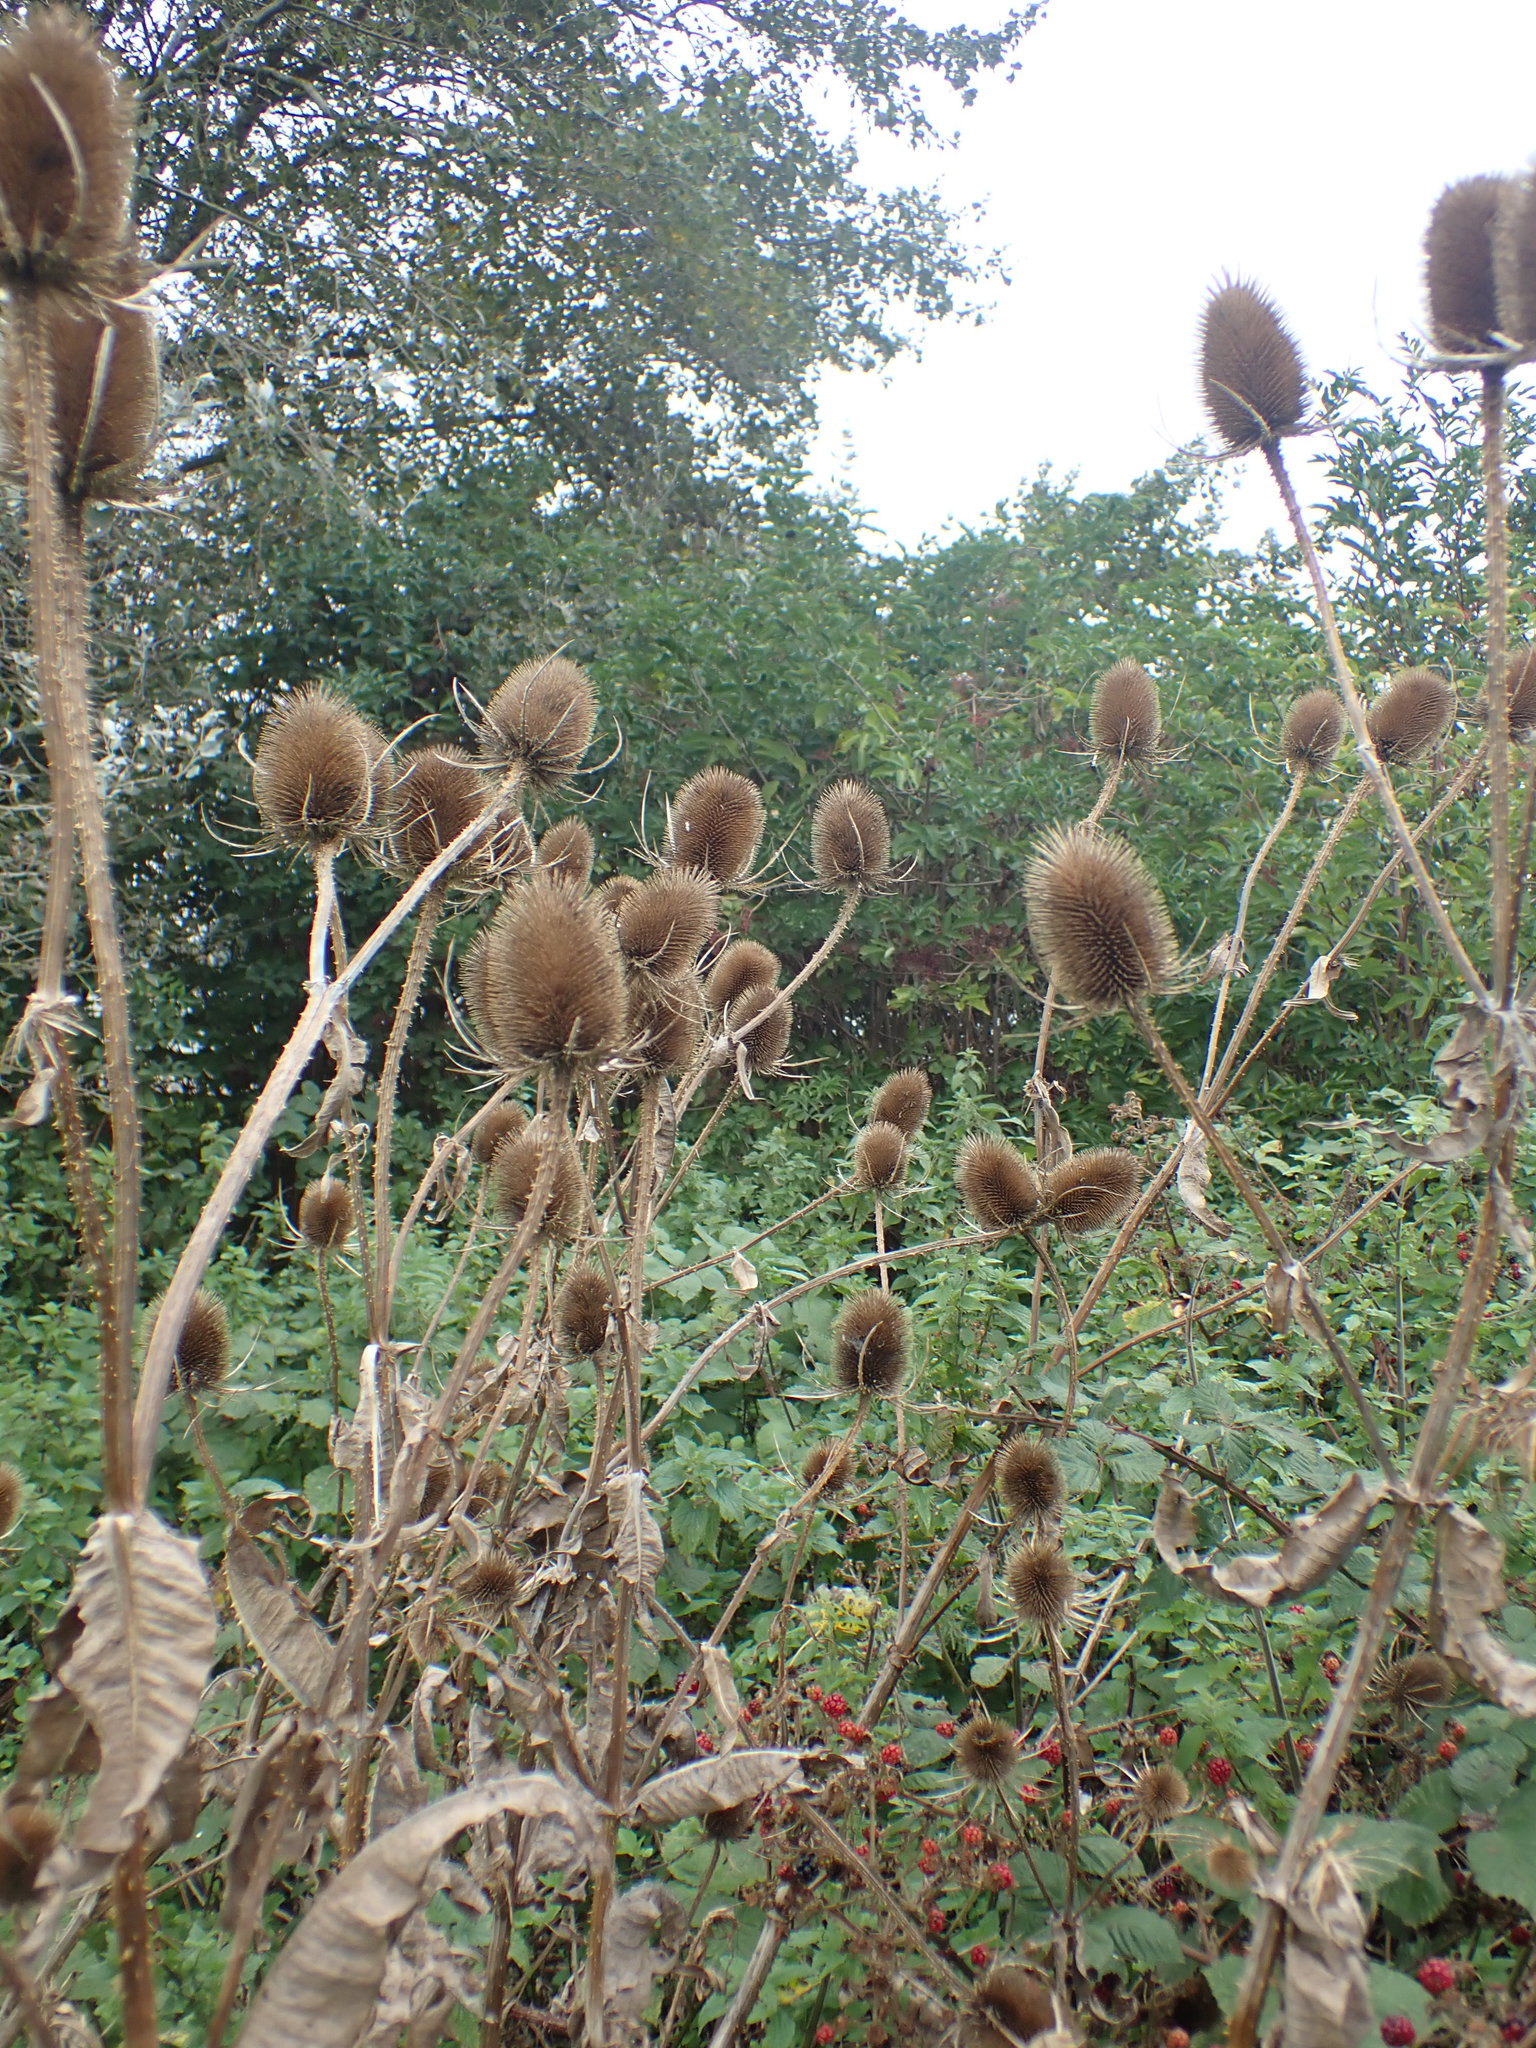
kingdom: Plantae
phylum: Tracheophyta
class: Magnoliopsida
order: Dipsacales
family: Caprifoliaceae
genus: Dipsacus
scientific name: Dipsacus fullonum
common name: Teasel
